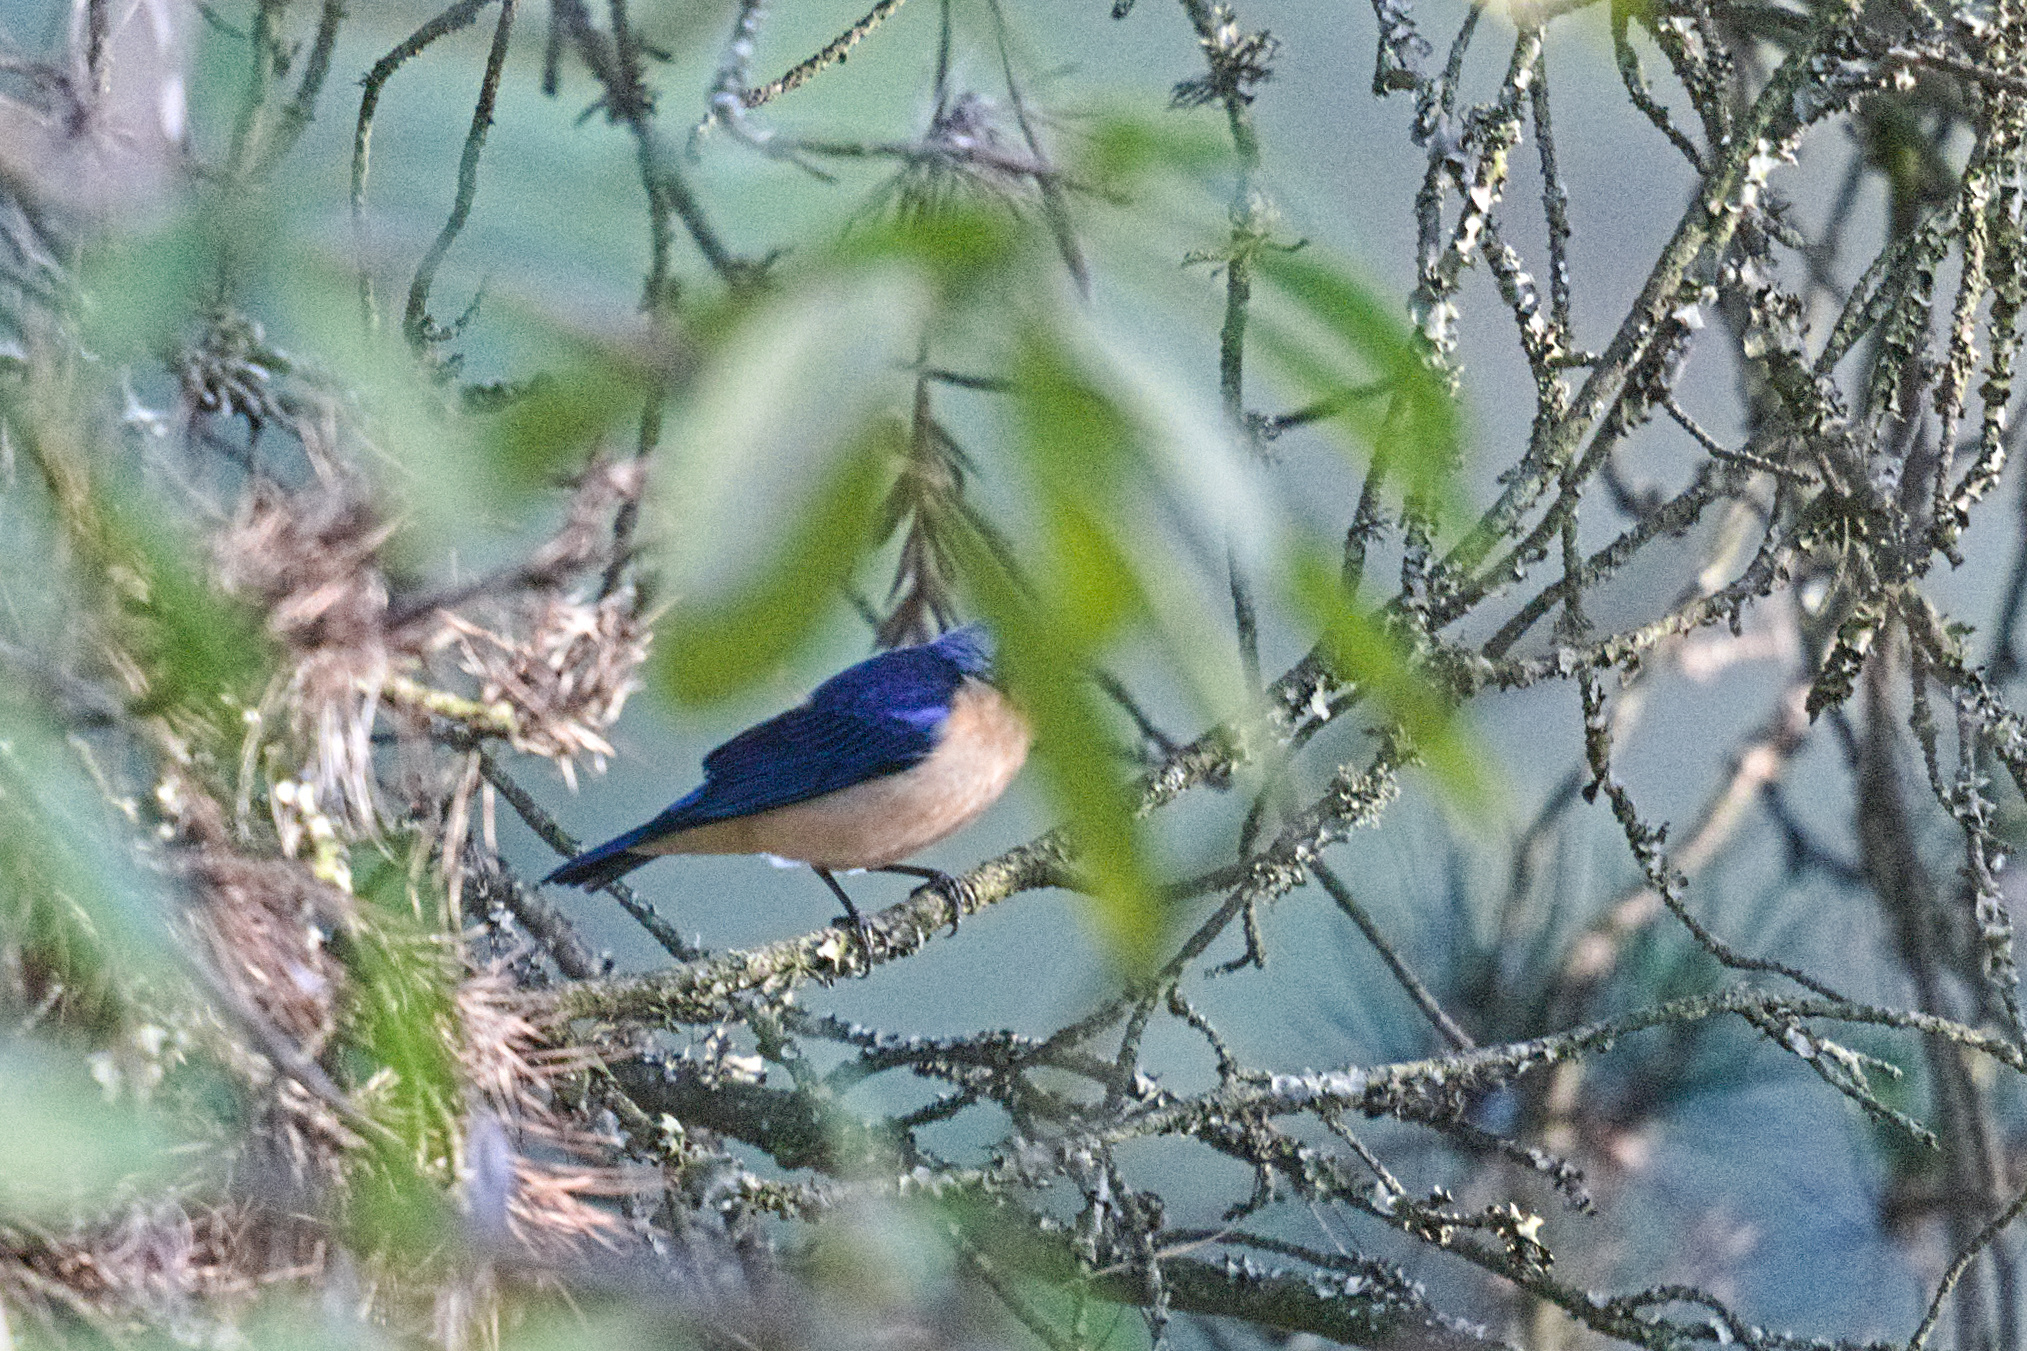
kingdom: Animalia
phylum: Chordata
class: Aves
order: Passeriformes
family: Thraupidae
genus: Pipraeidea
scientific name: Pipraeidea melanonota
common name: Fawn-breasted tanager
